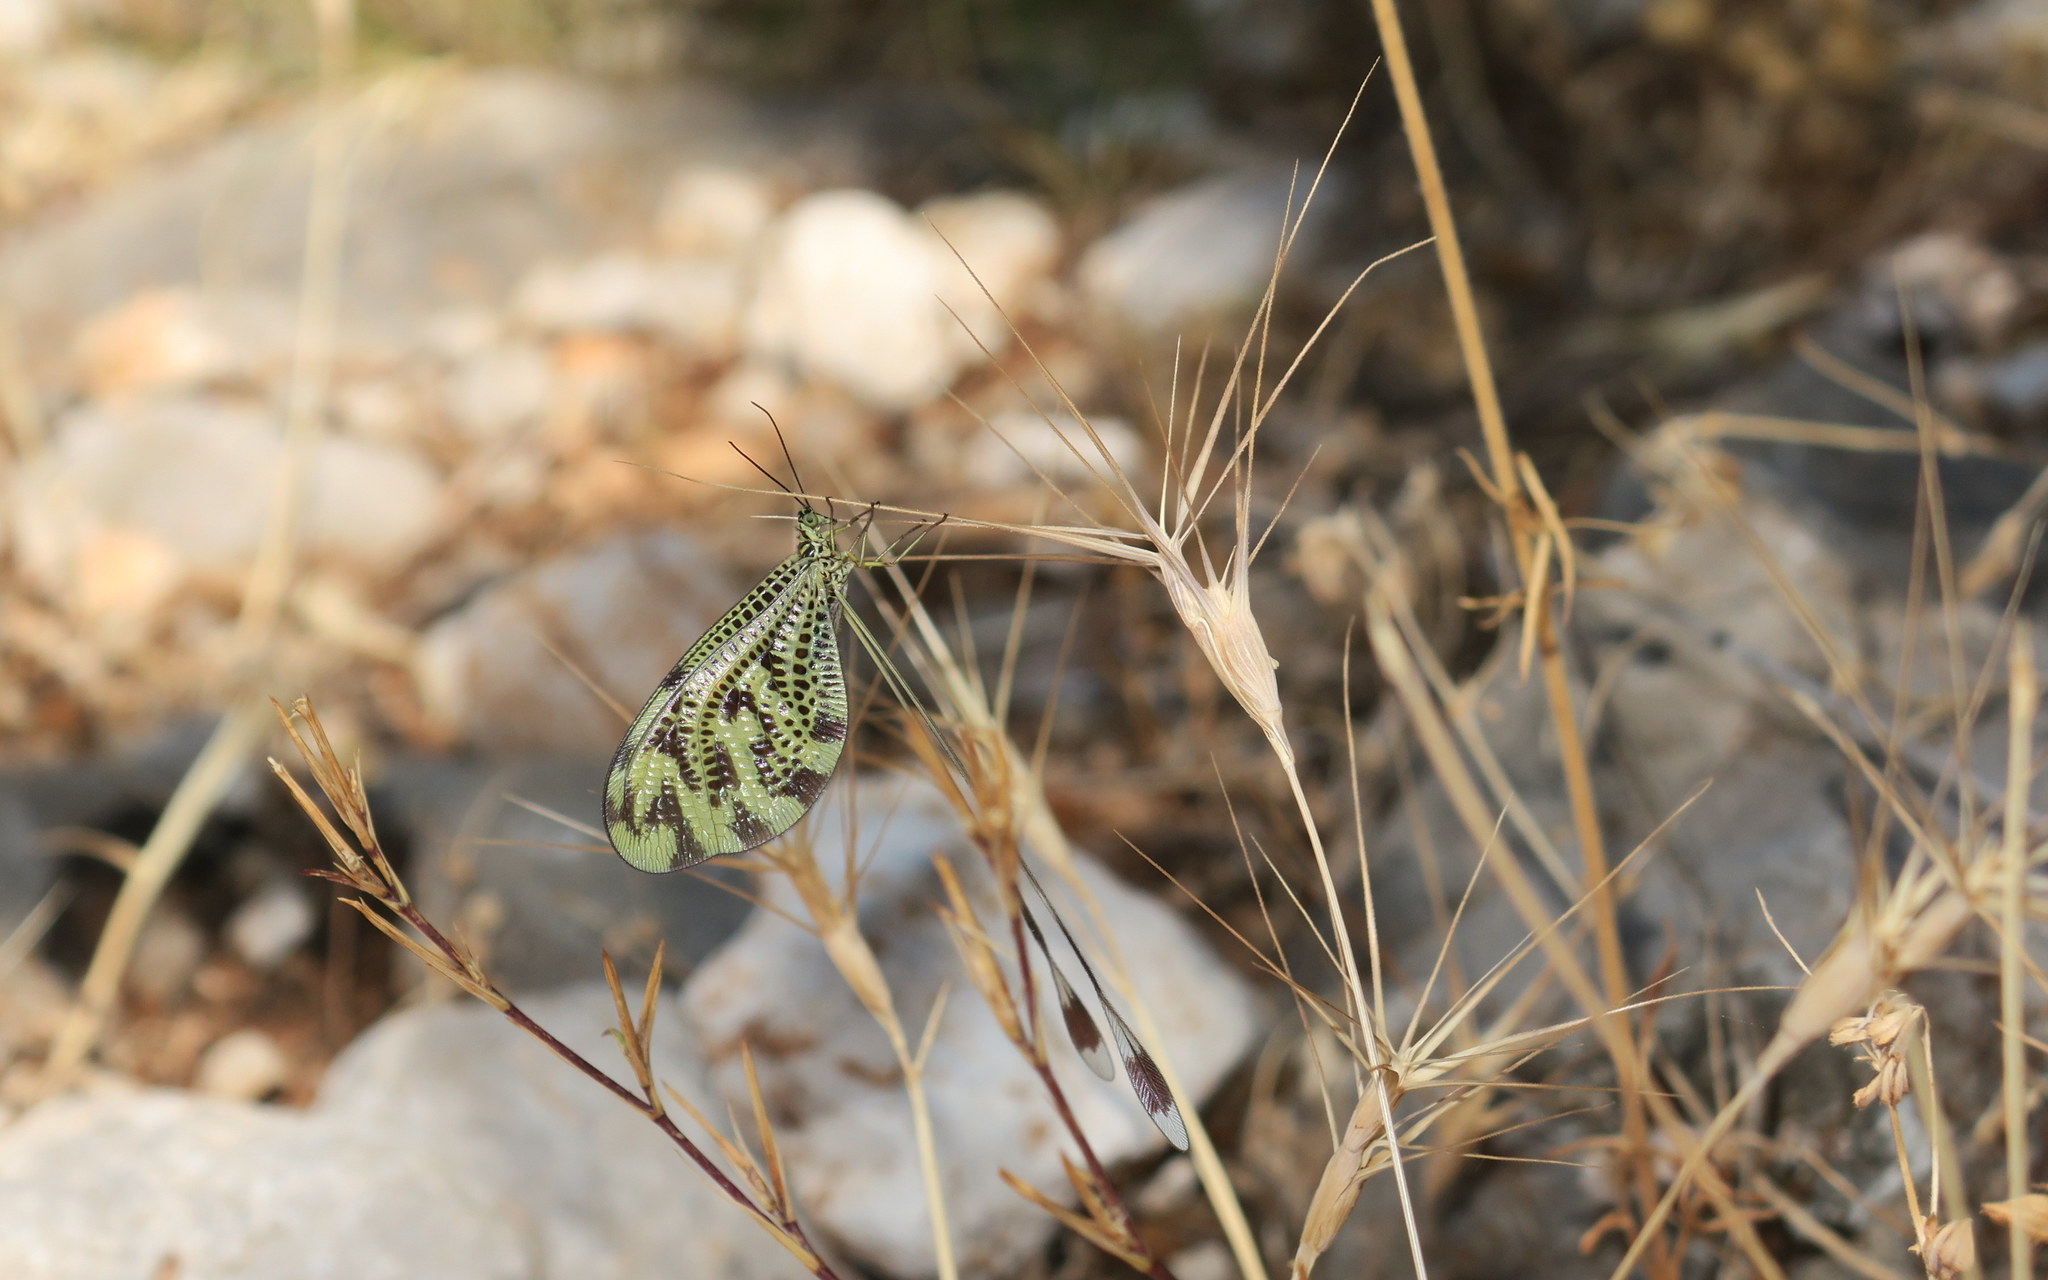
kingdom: Animalia
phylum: Arthropoda
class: Insecta
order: Neuroptera
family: Nemopteridae
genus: Nemoptera
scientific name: Nemoptera coa
